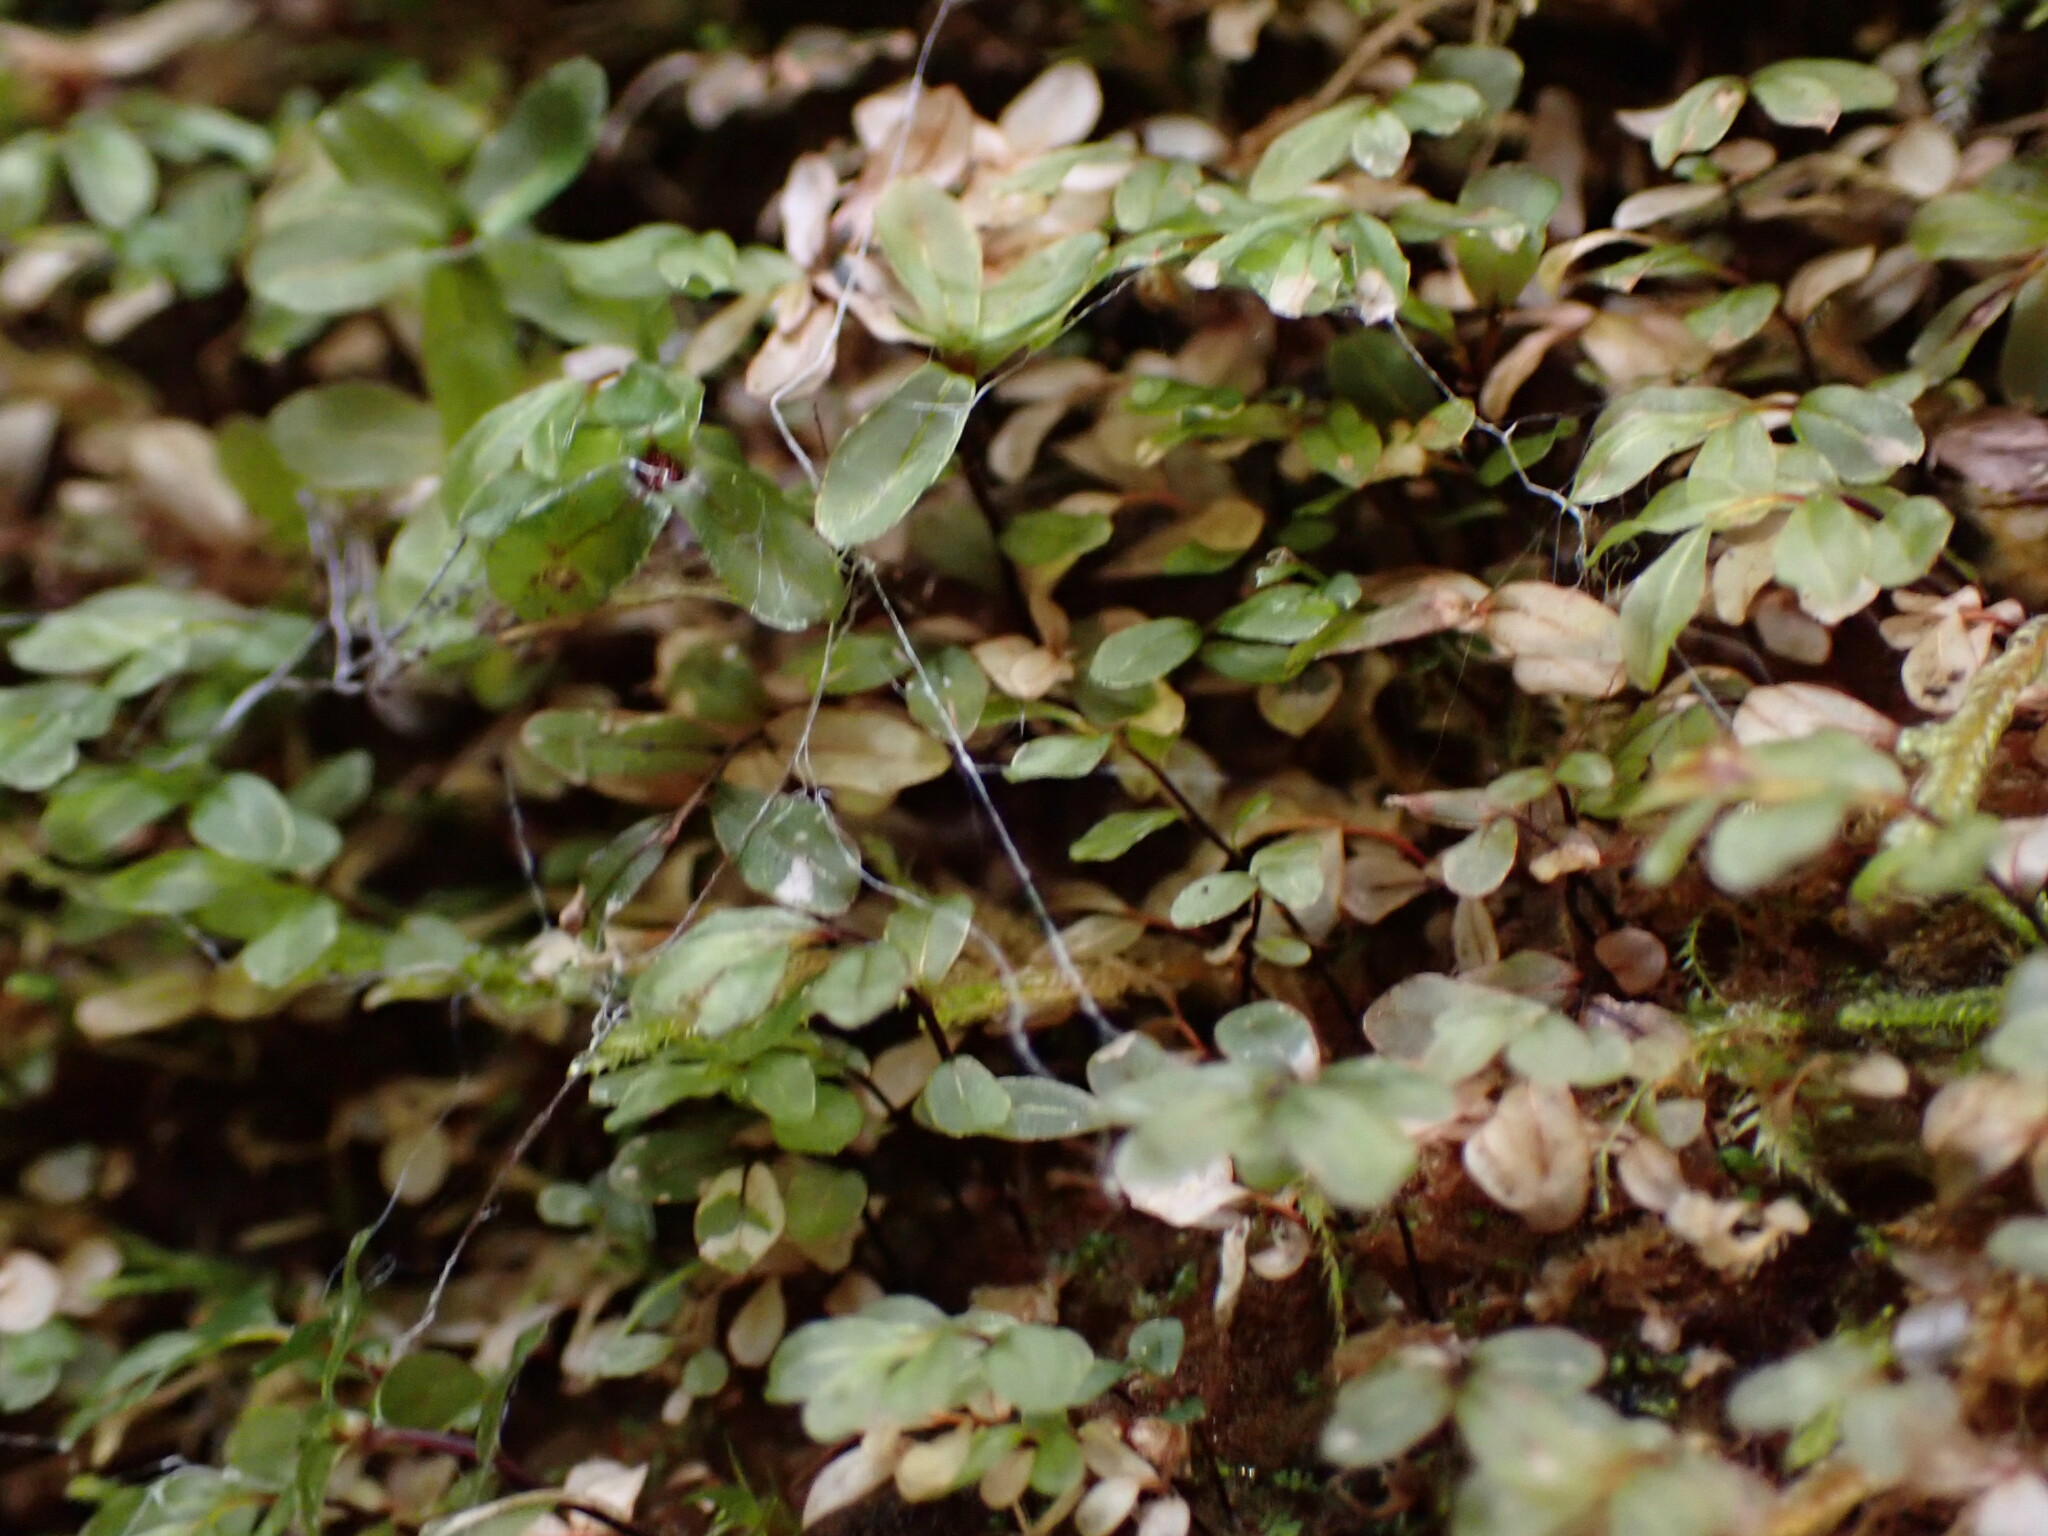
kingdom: Plantae
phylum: Bryophyta
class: Bryopsida
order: Bryales
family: Mniaceae
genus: Rhizomnium
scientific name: Rhizomnium glabrescens
